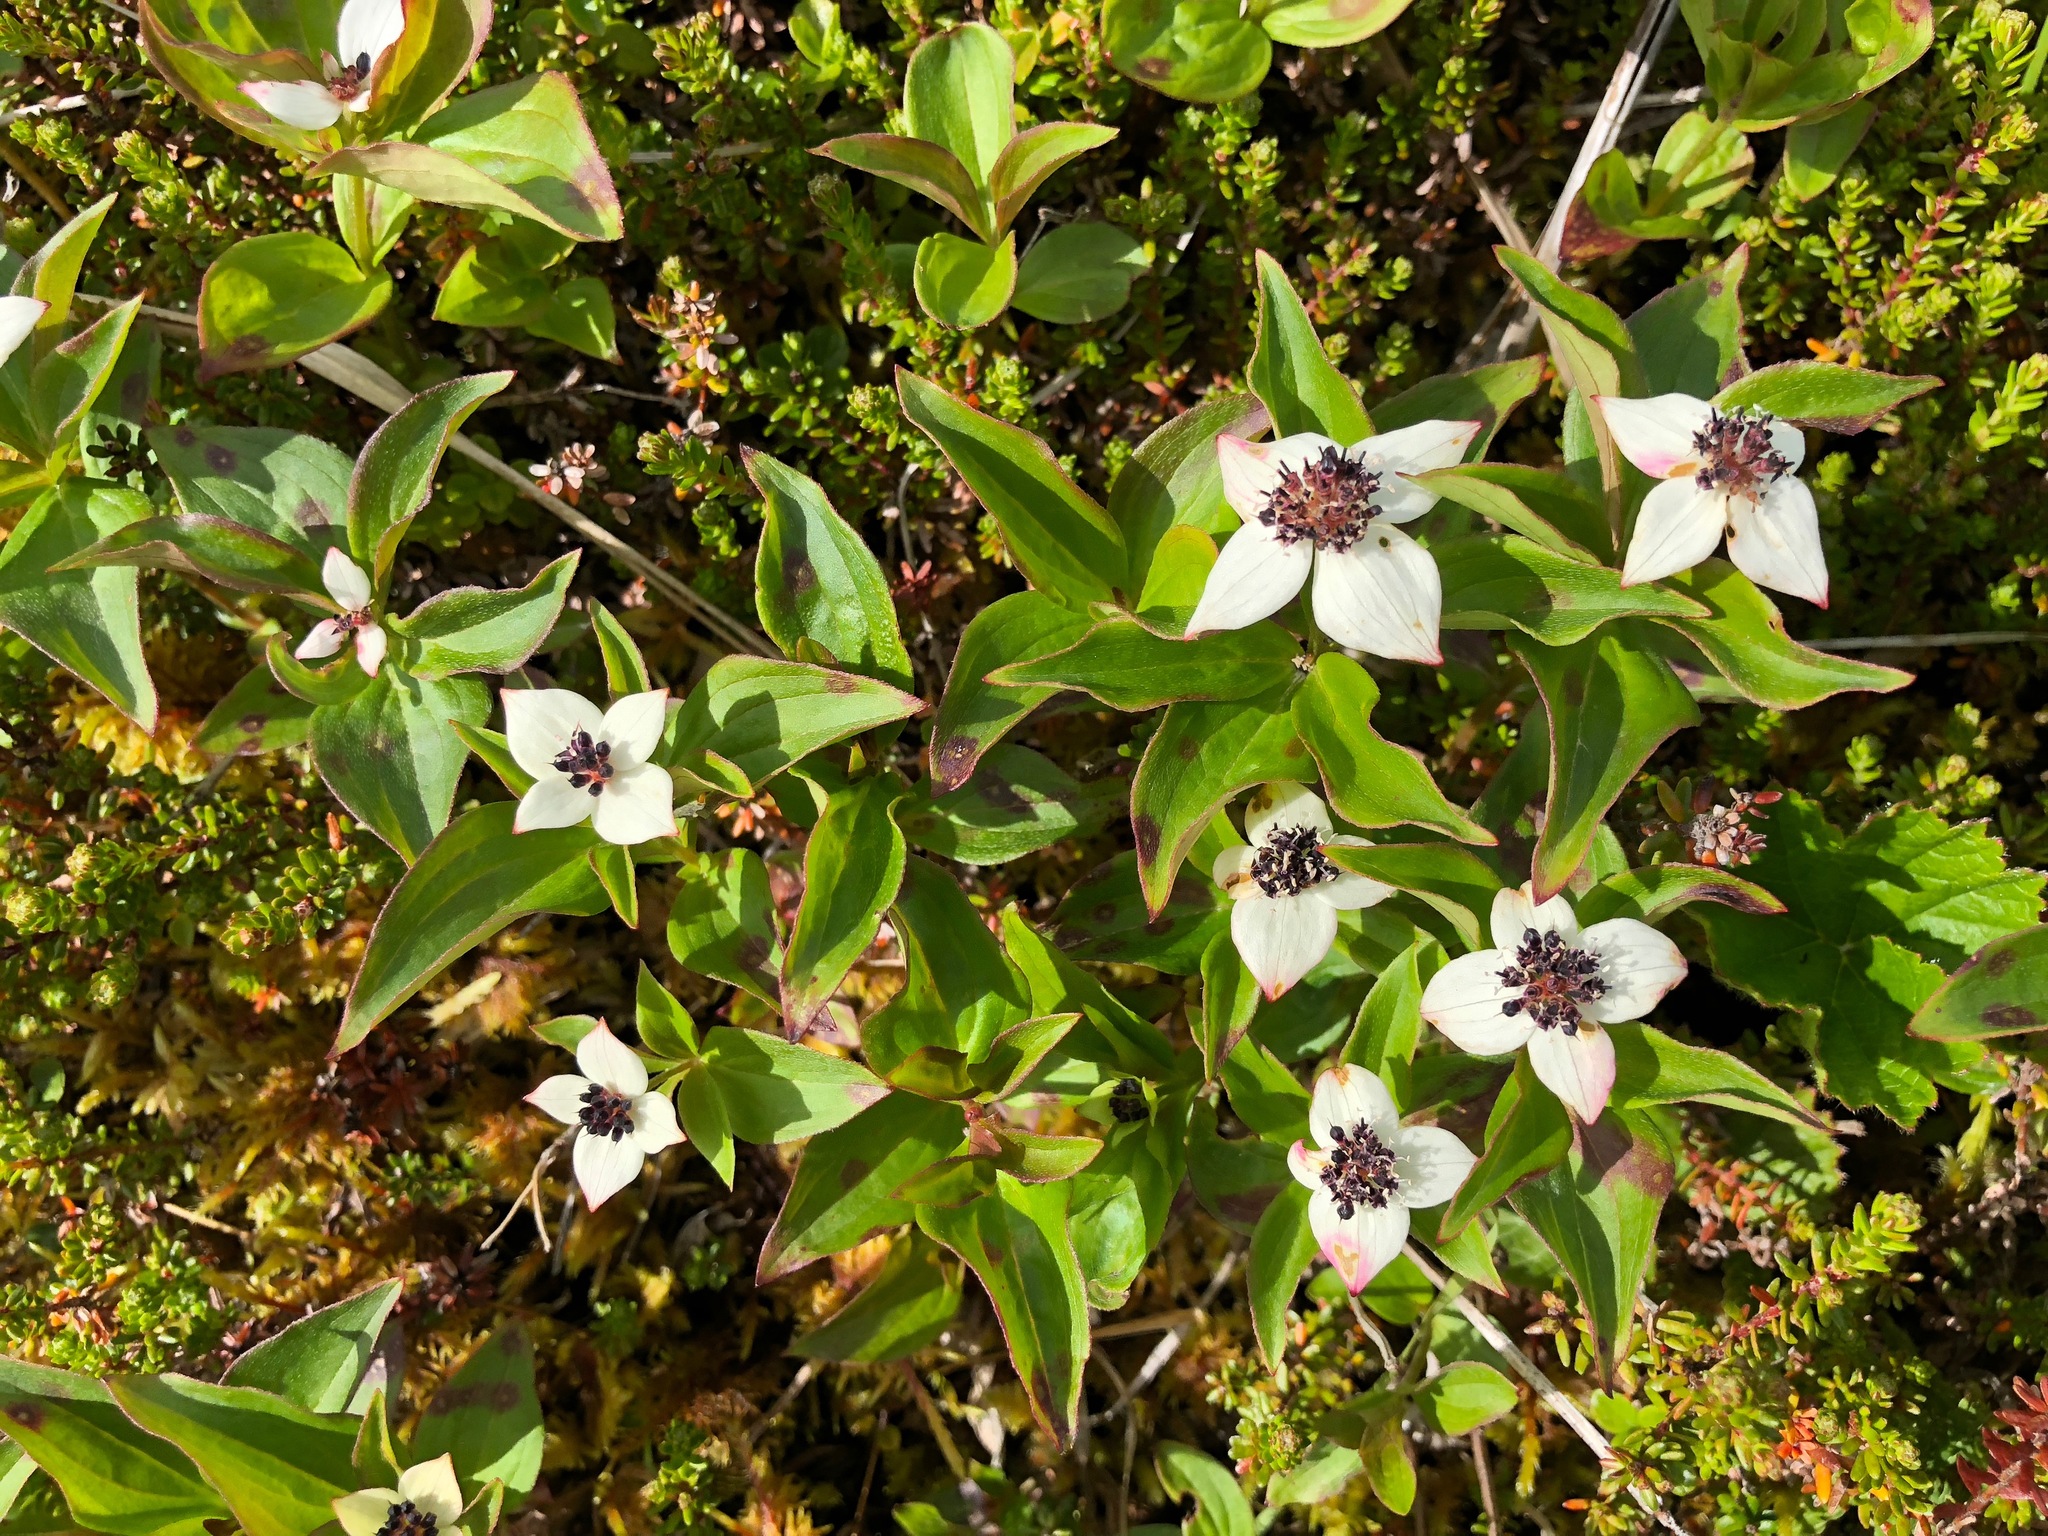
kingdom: Plantae
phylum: Tracheophyta
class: Magnoliopsida
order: Cornales
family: Cornaceae
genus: Cornus
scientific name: Cornus suecica
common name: Dwarf cornel
